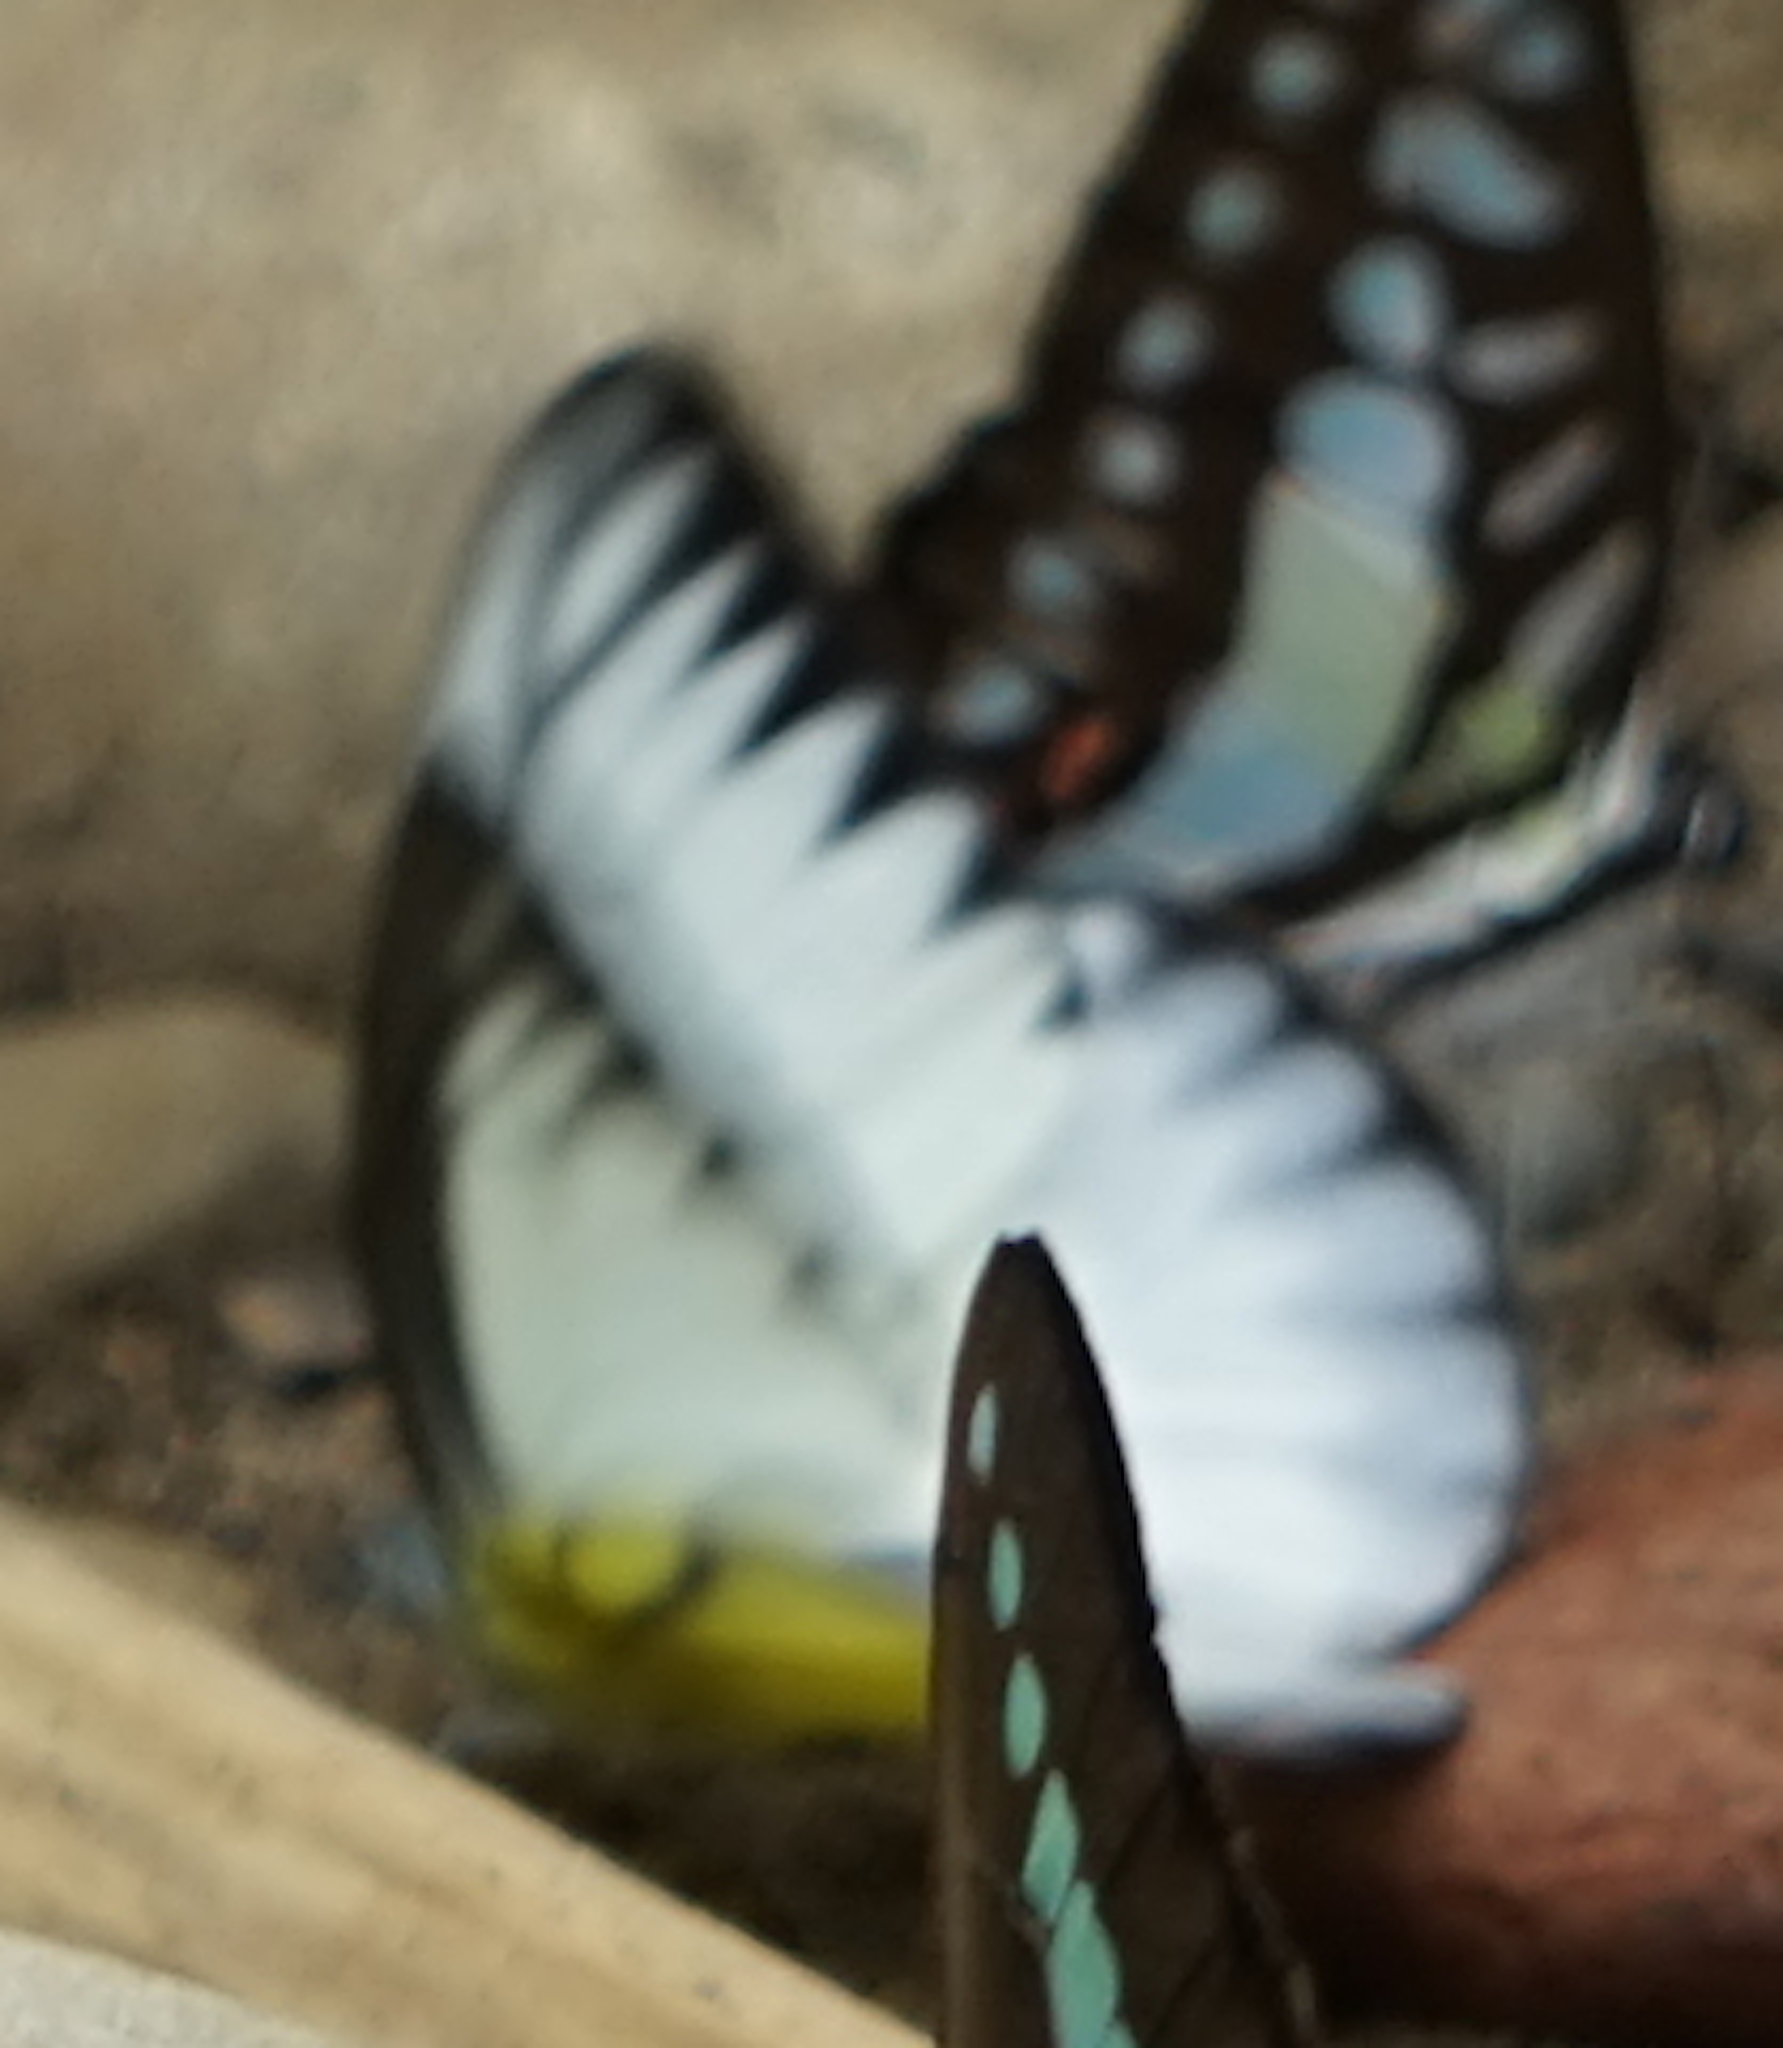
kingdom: Animalia
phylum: Arthropoda
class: Insecta
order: Lepidoptera
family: Pieridae
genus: Appias
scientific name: Appias lyncida
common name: Chocolate albatross
